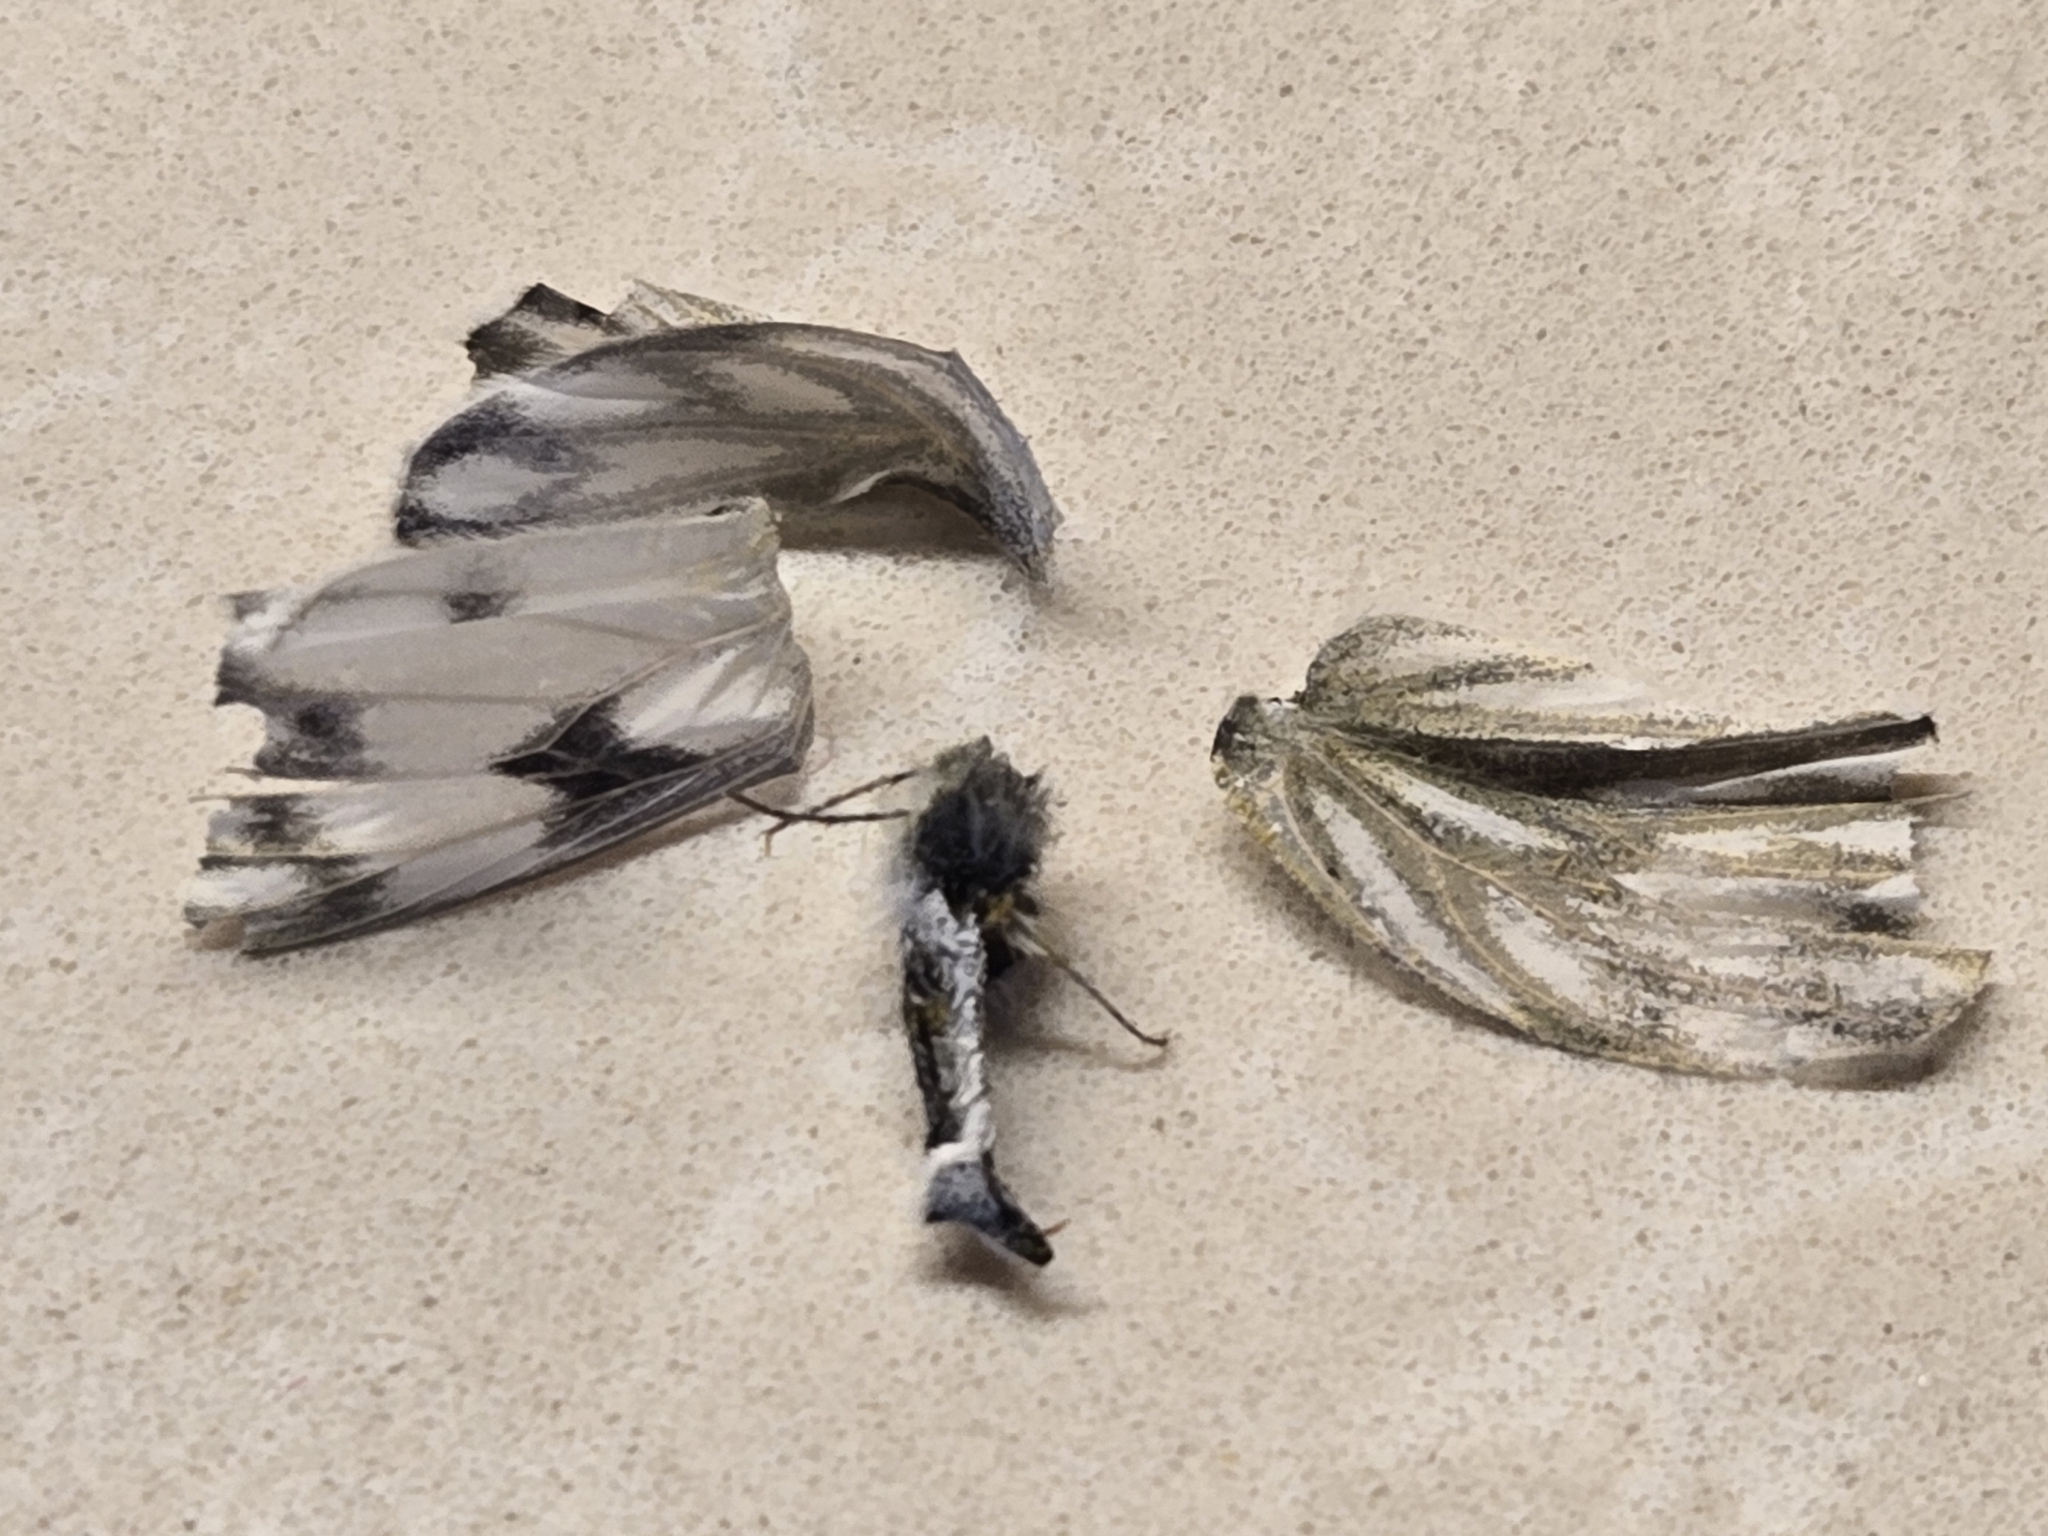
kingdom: Animalia
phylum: Arthropoda
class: Insecta
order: Lepidoptera
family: Pieridae
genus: Pontia
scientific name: Pontia protodice
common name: Checkered white
